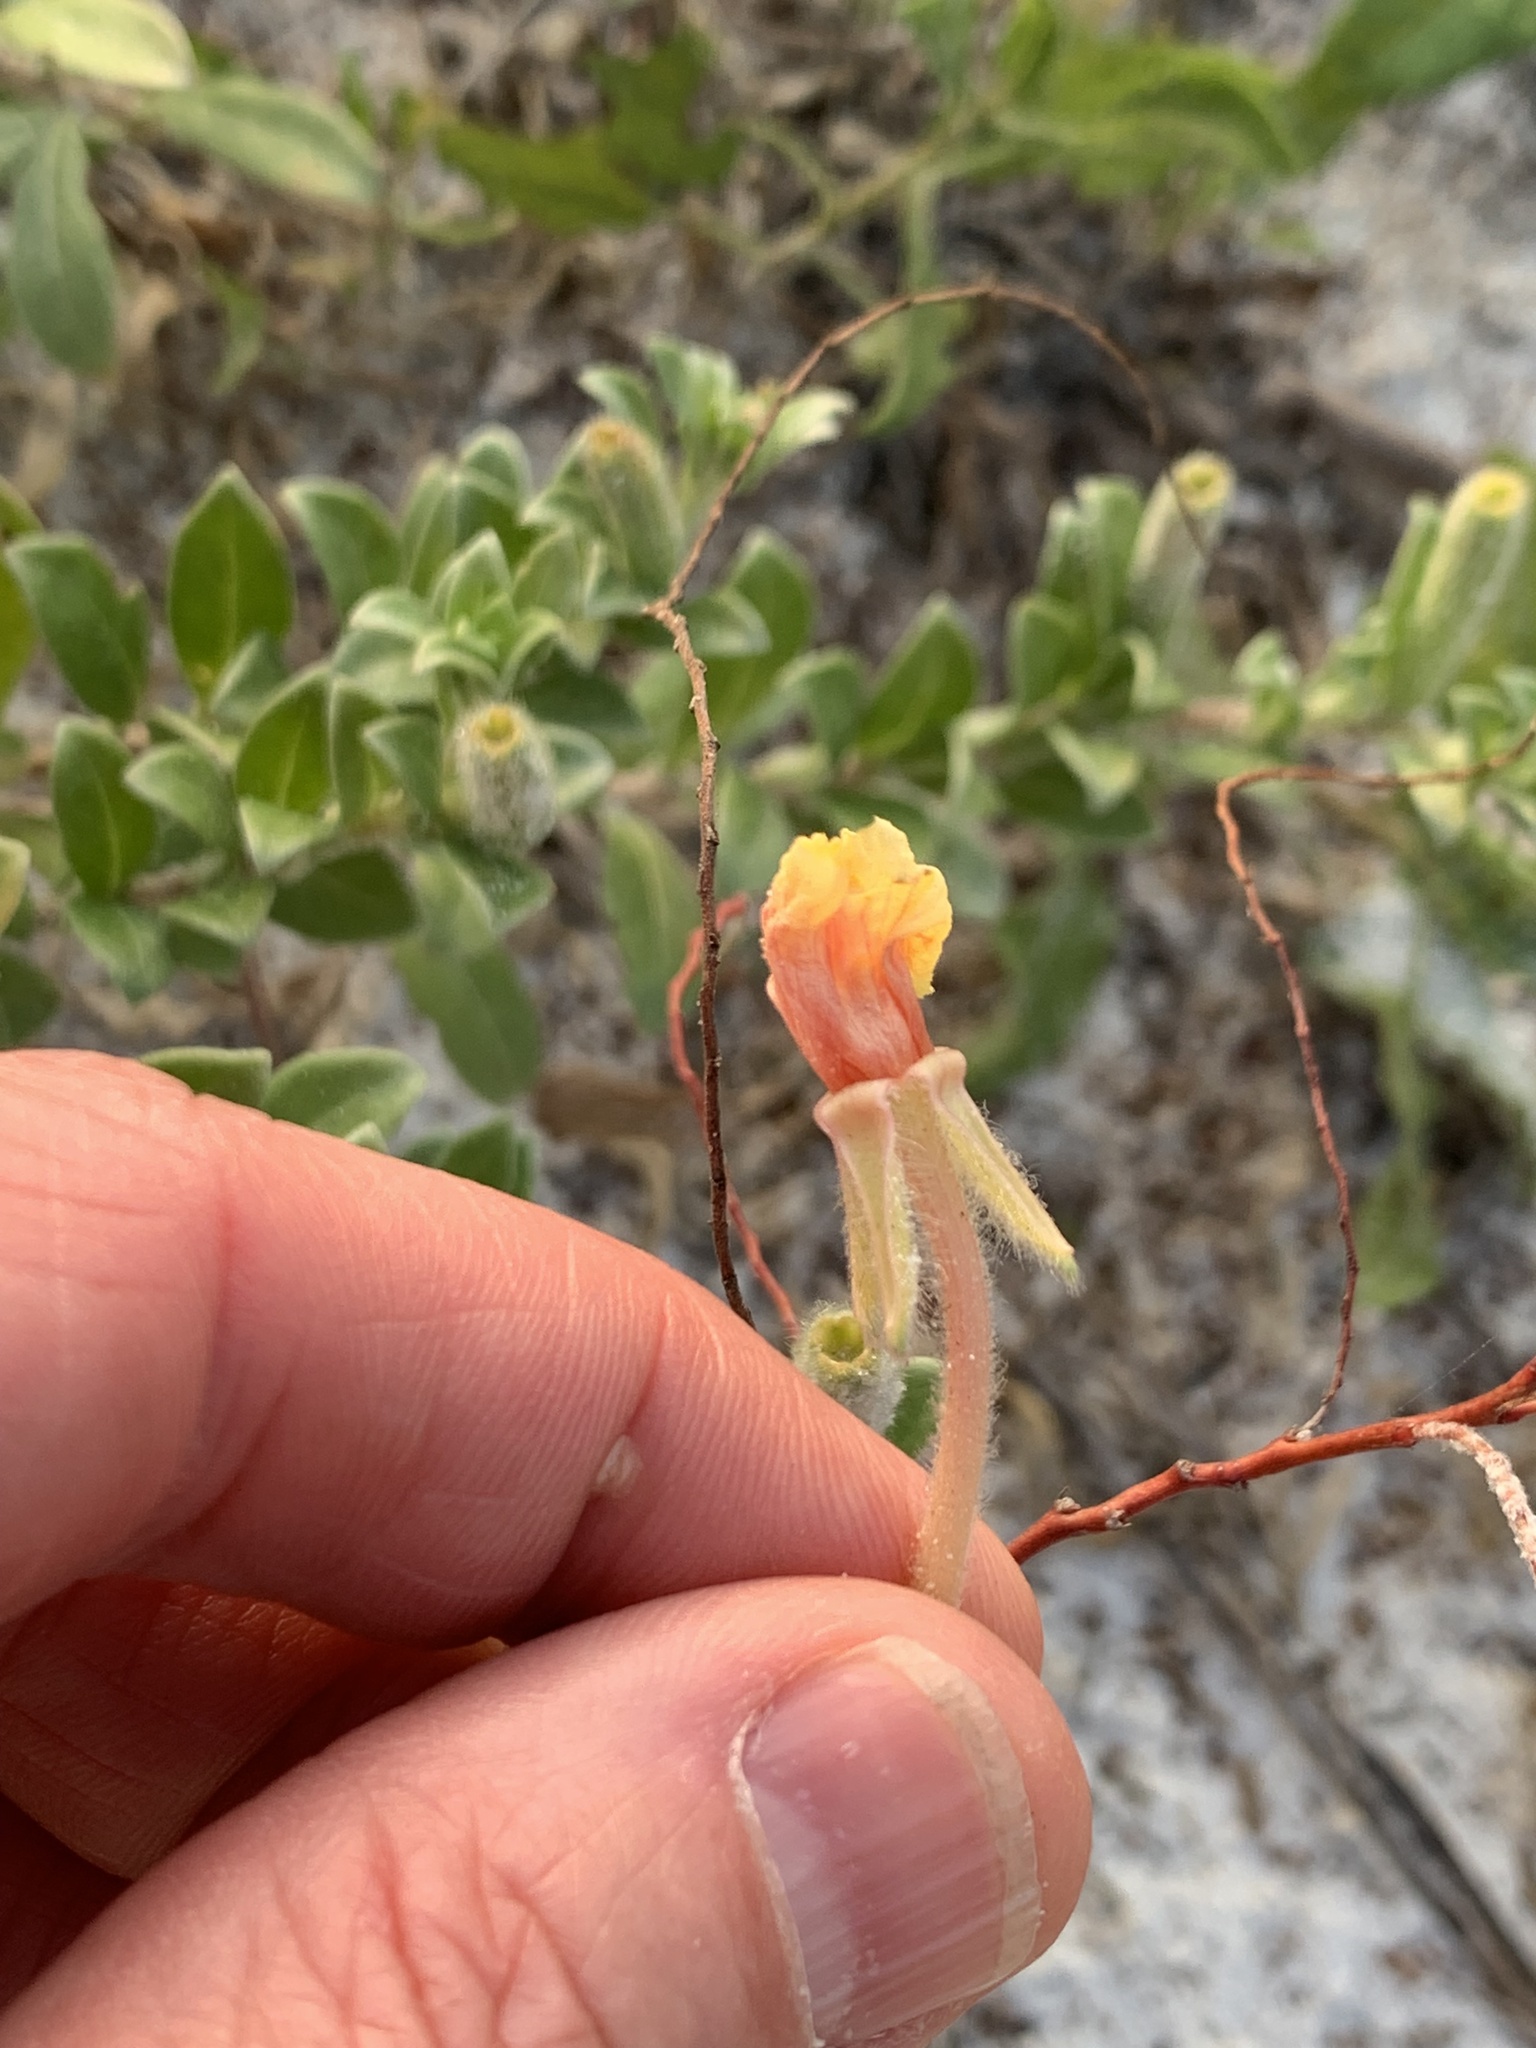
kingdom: Plantae
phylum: Tracheophyta
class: Magnoliopsida
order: Myrtales
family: Onagraceae
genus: Oenothera
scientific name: Oenothera humifusa
